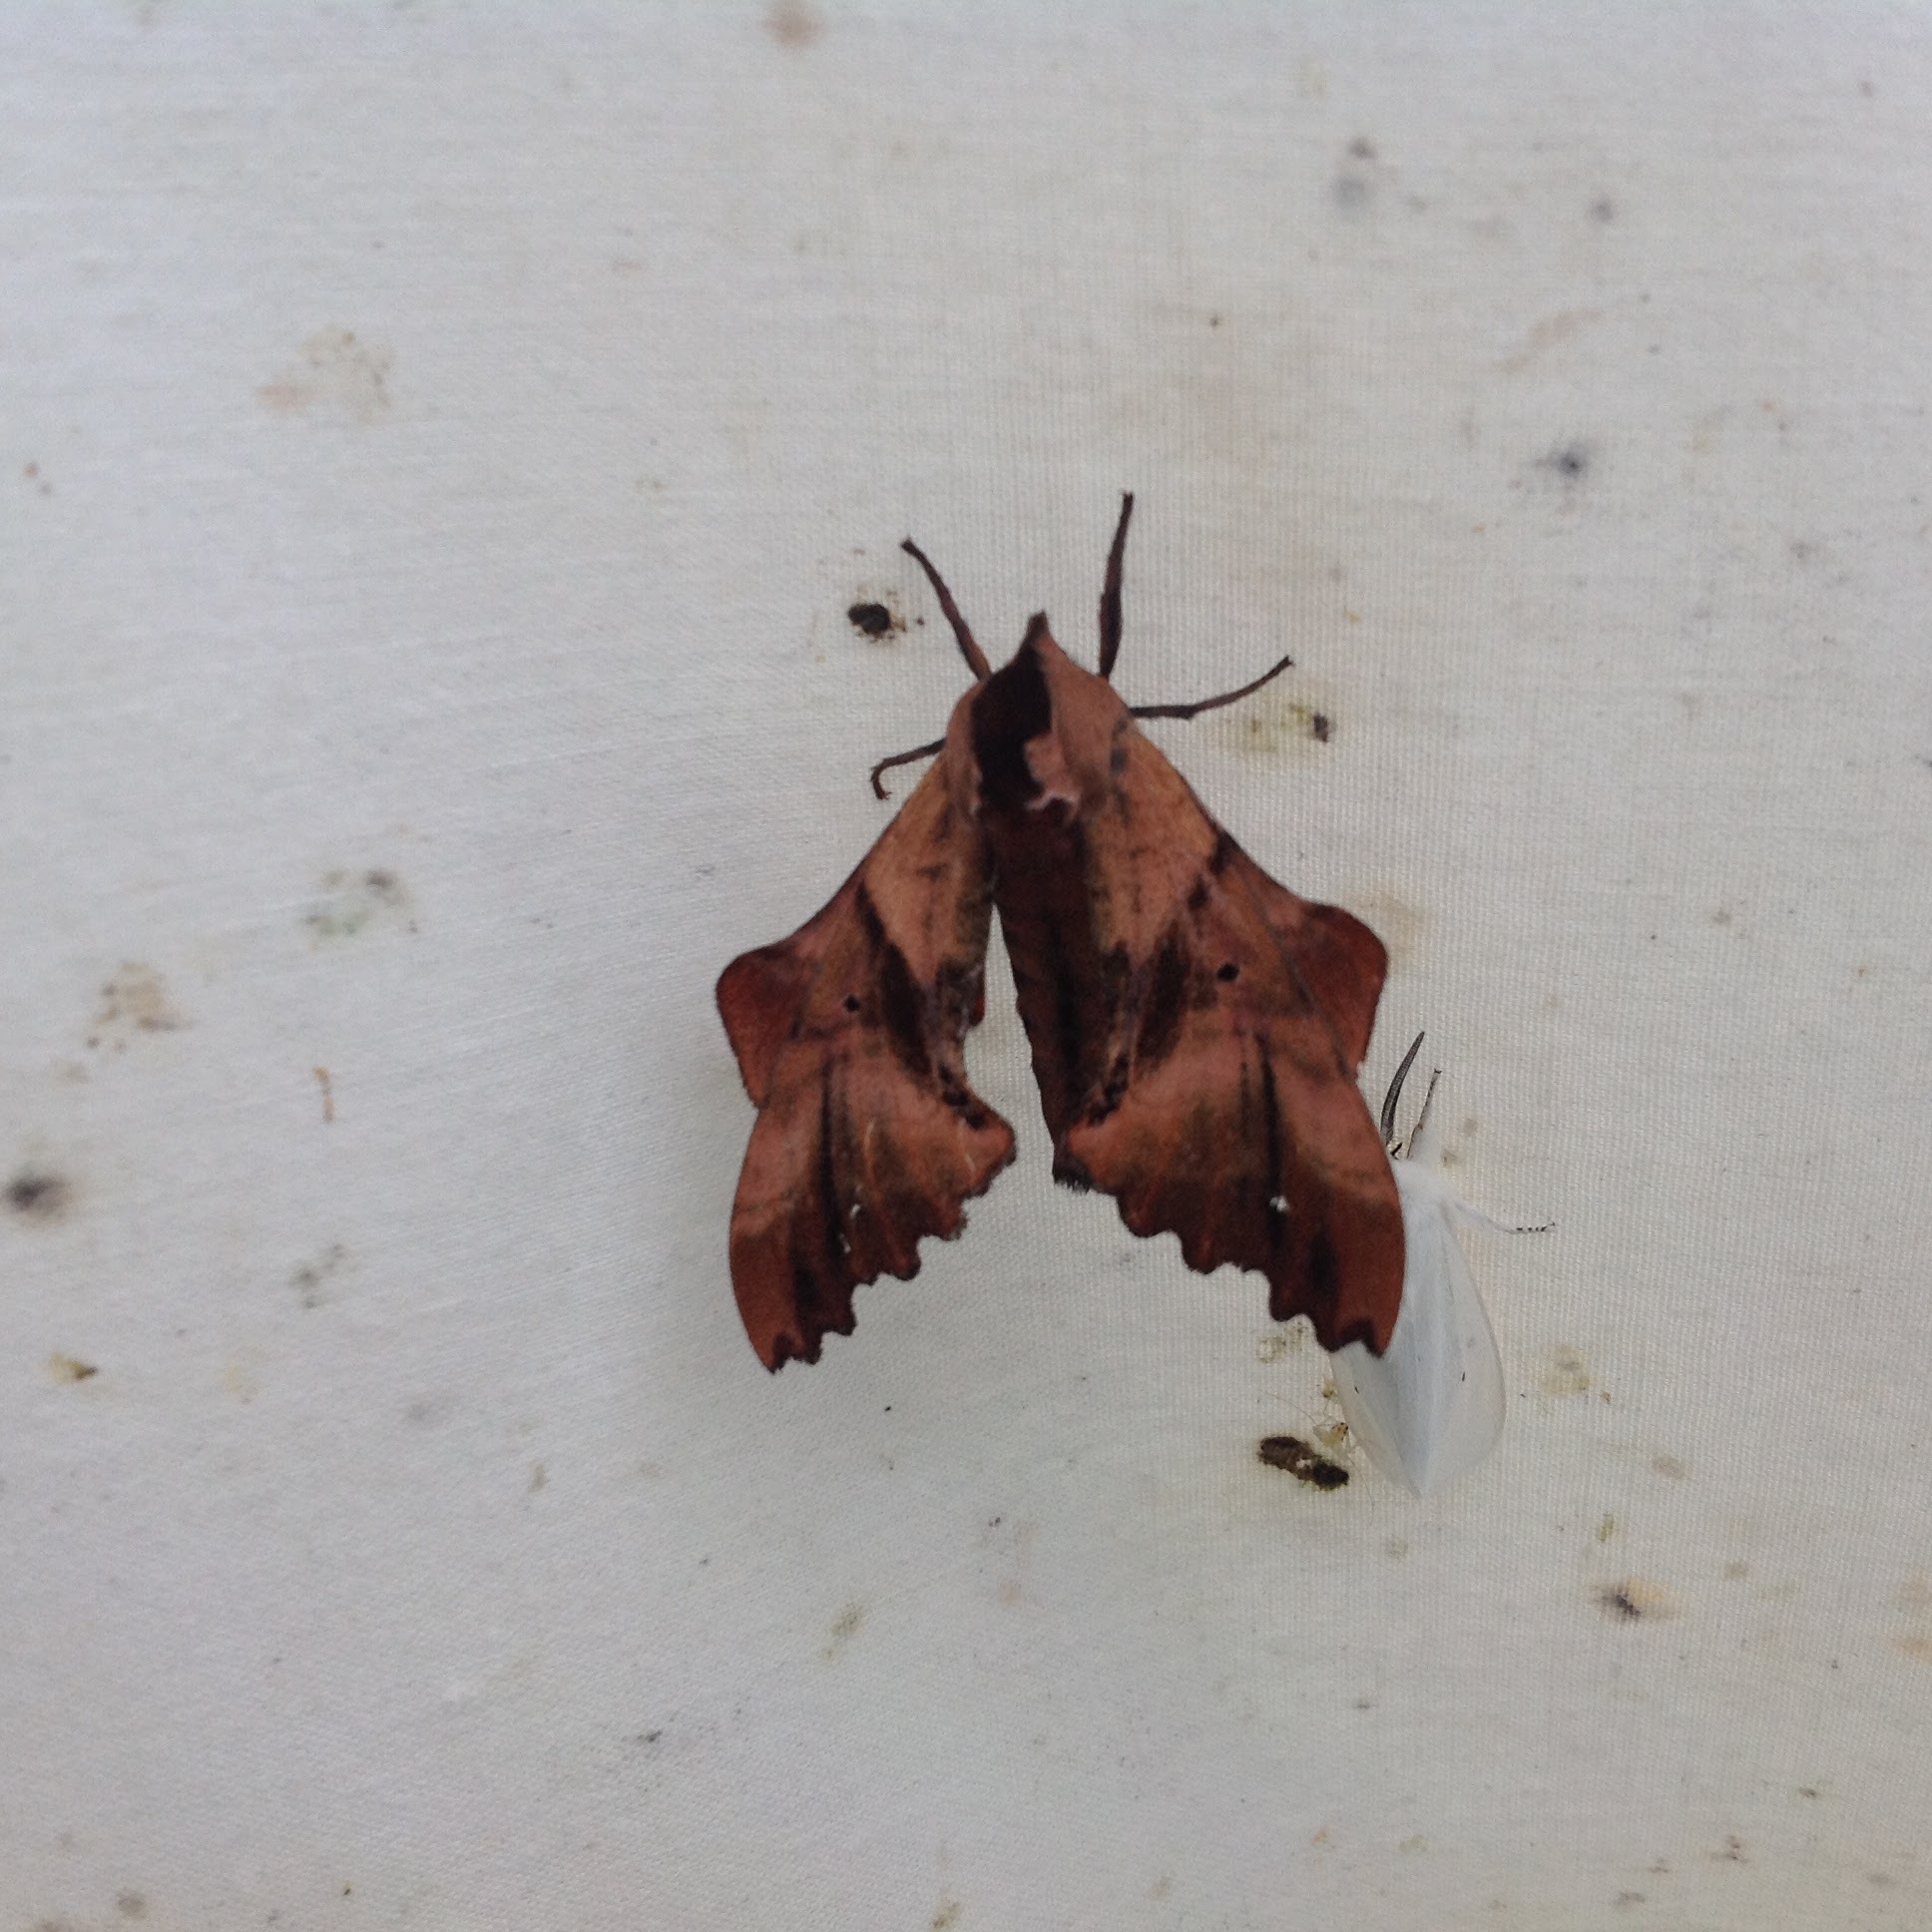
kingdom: Animalia
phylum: Arthropoda
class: Insecta
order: Lepidoptera
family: Sphingidae
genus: Paonias
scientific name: Paonias excaecata
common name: Blind-eyed sphinx
